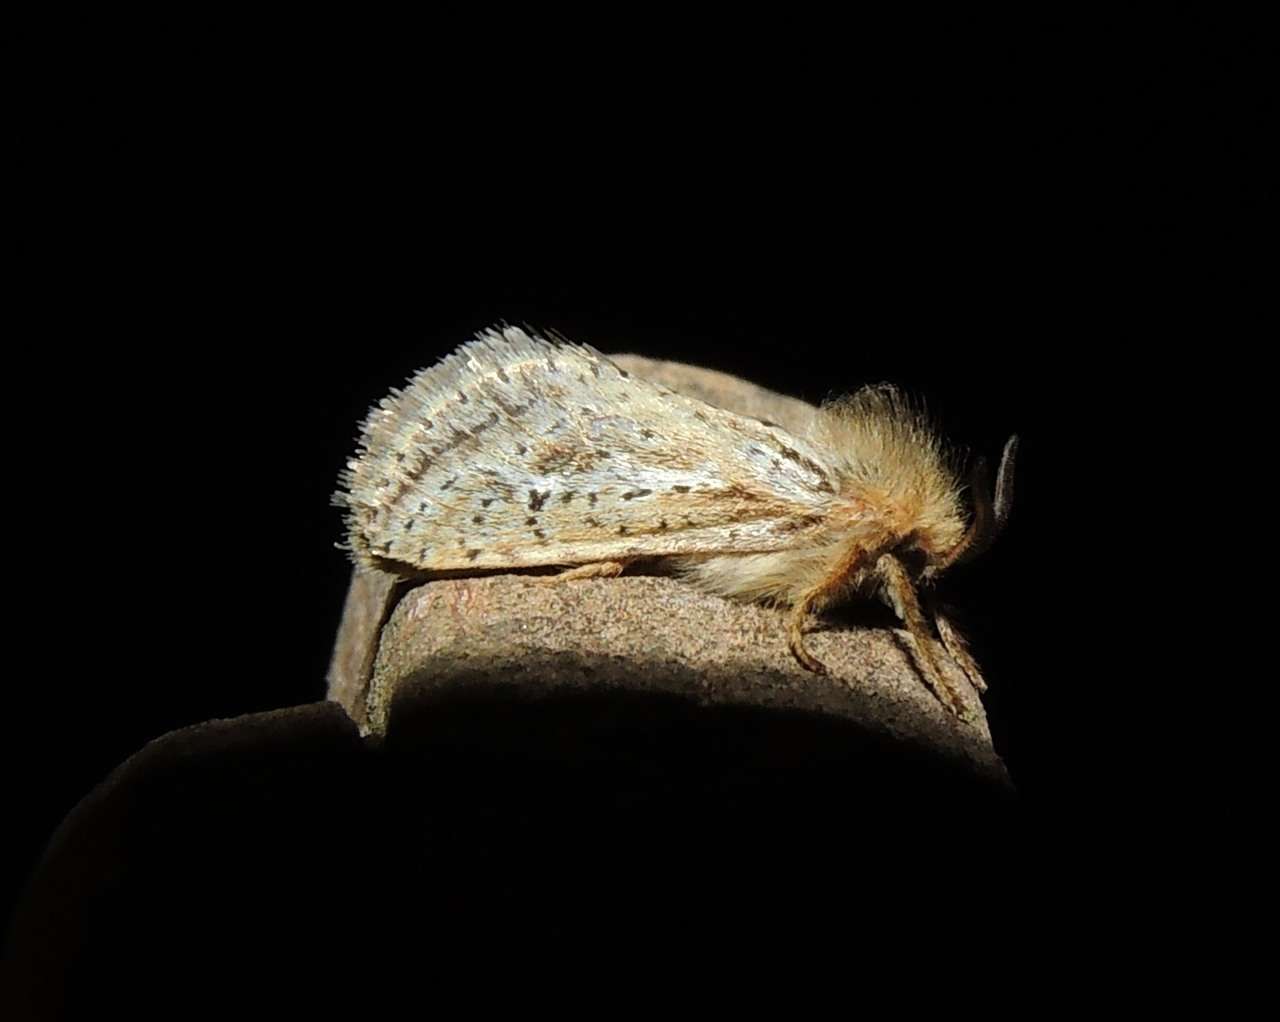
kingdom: Animalia
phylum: Arthropoda
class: Insecta
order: Lepidoptera
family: Hepialidae
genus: Fraus
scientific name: Fraus simulans
